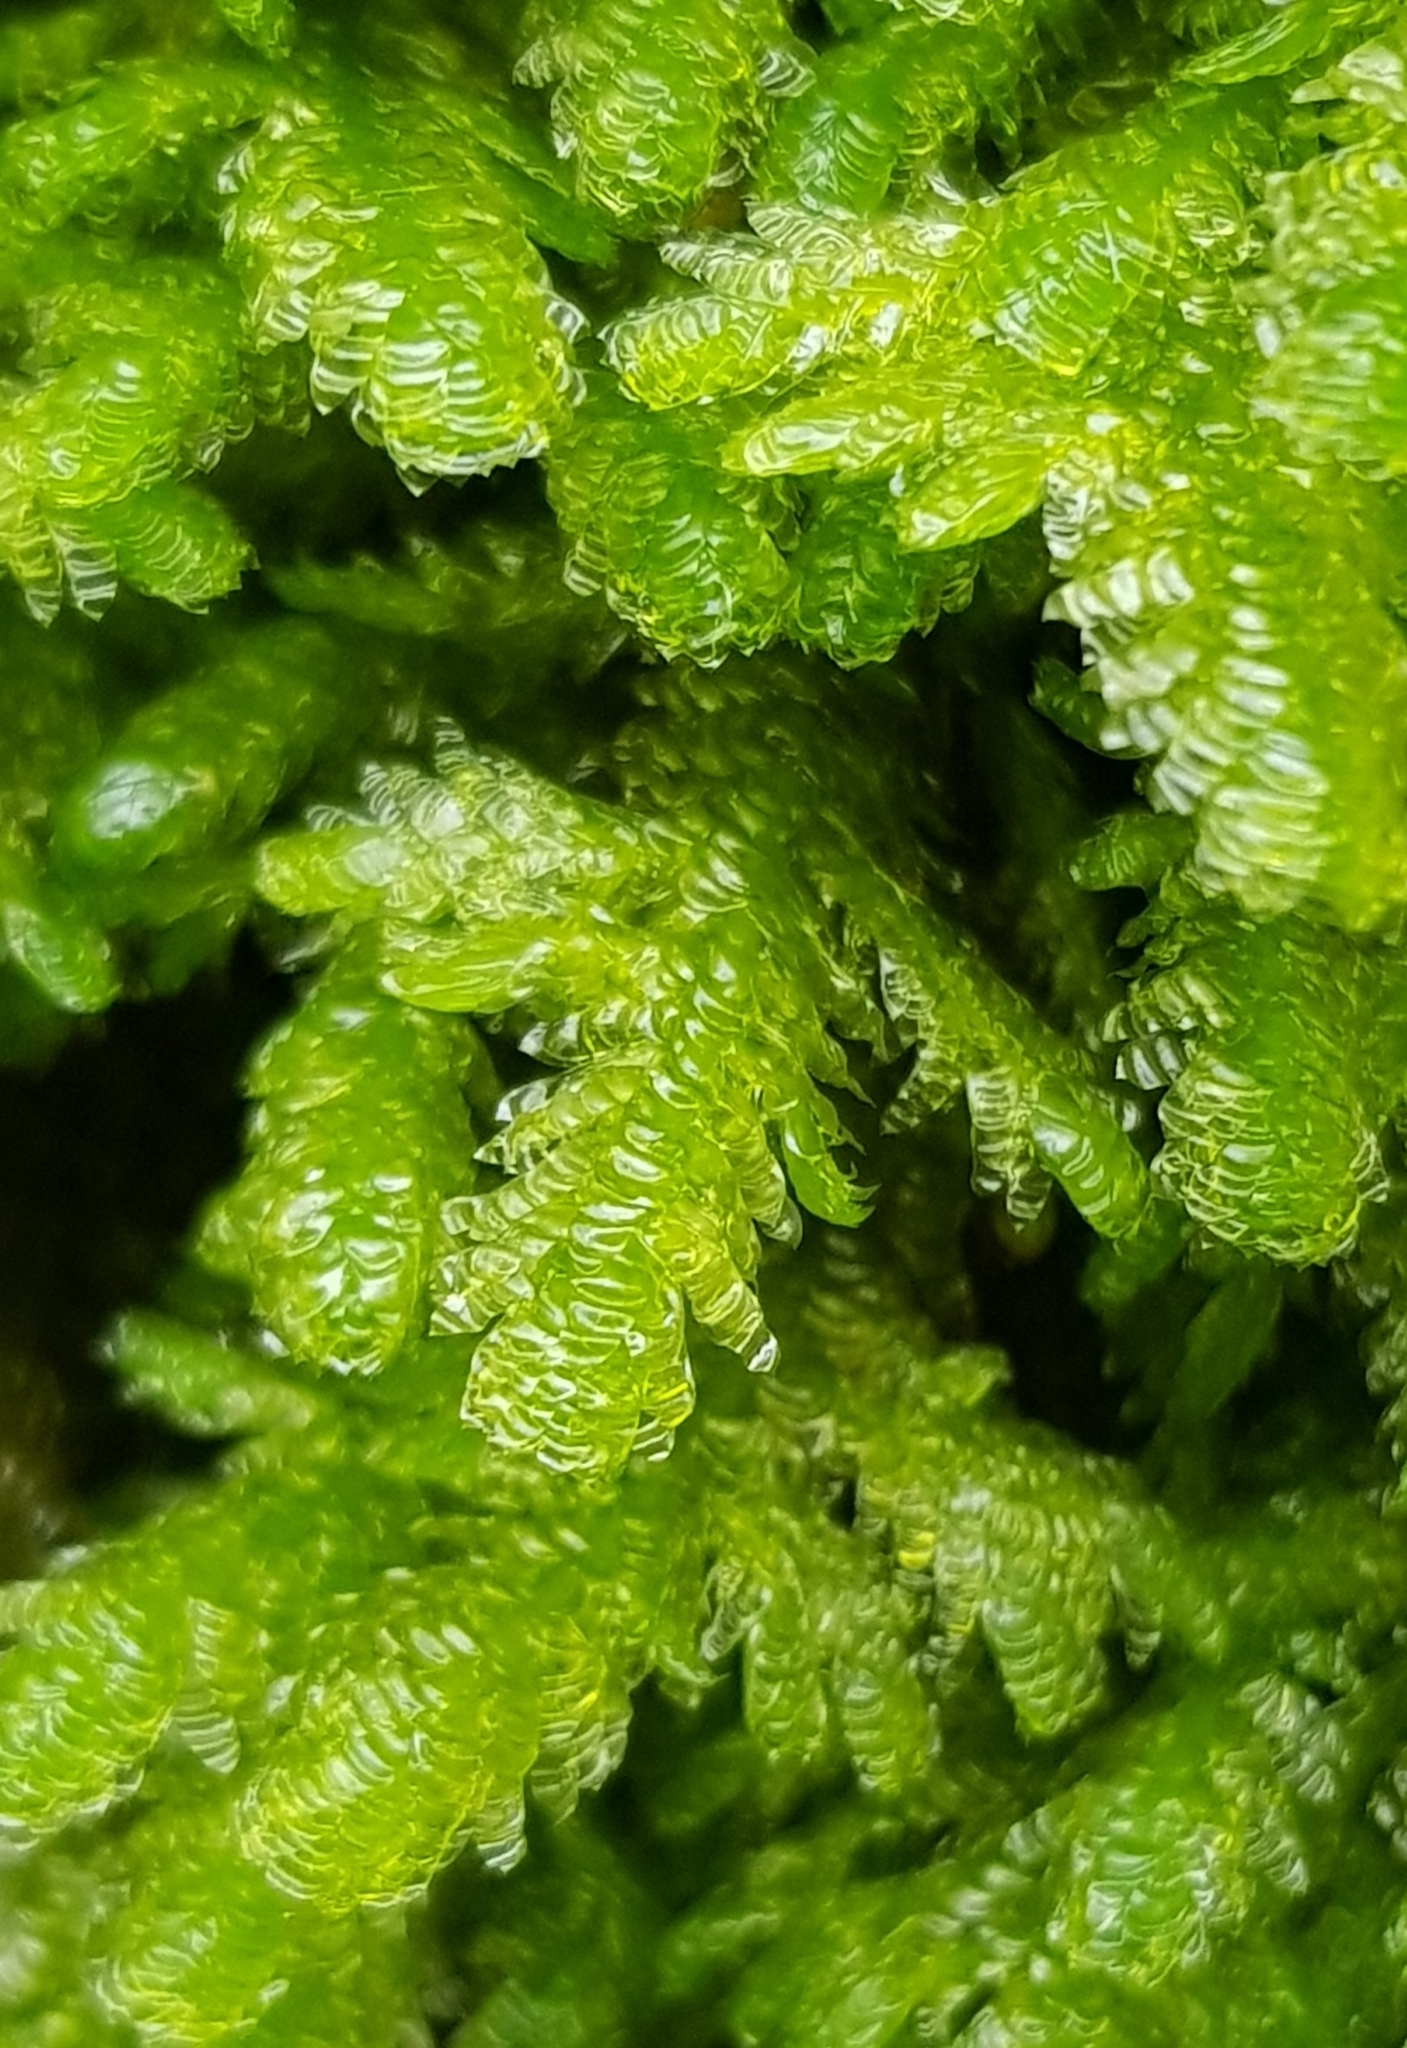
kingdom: Plantae
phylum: Bryophyta
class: Bryopsida
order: Hypnales
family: Neckeraceae
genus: Exsertotheca
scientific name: Exsertotheca crispa
